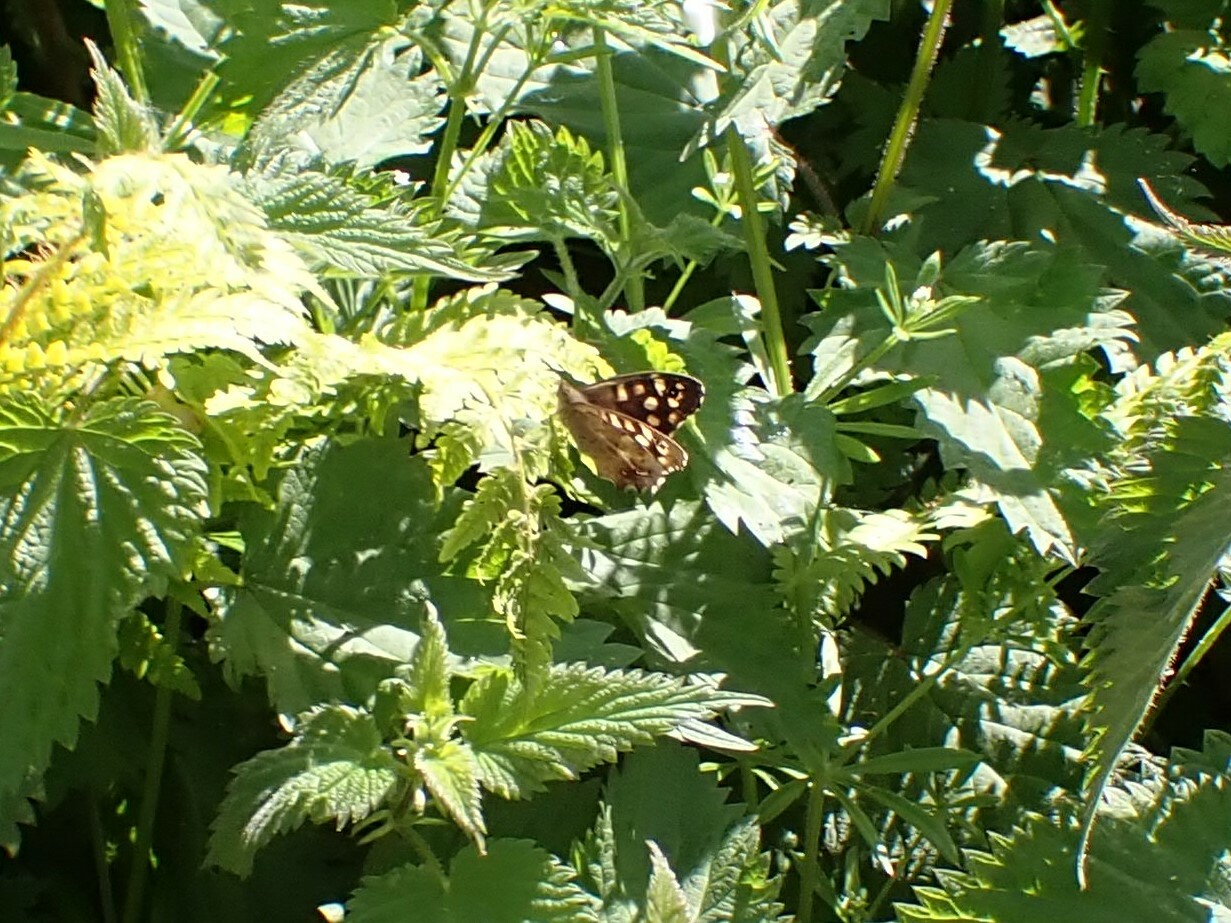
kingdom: Animalia
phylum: Arthropoda
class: Insecta
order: Lepidoptera
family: Nymphalidae
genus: Pararge
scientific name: Pararge aegeria
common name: Speckled wood
